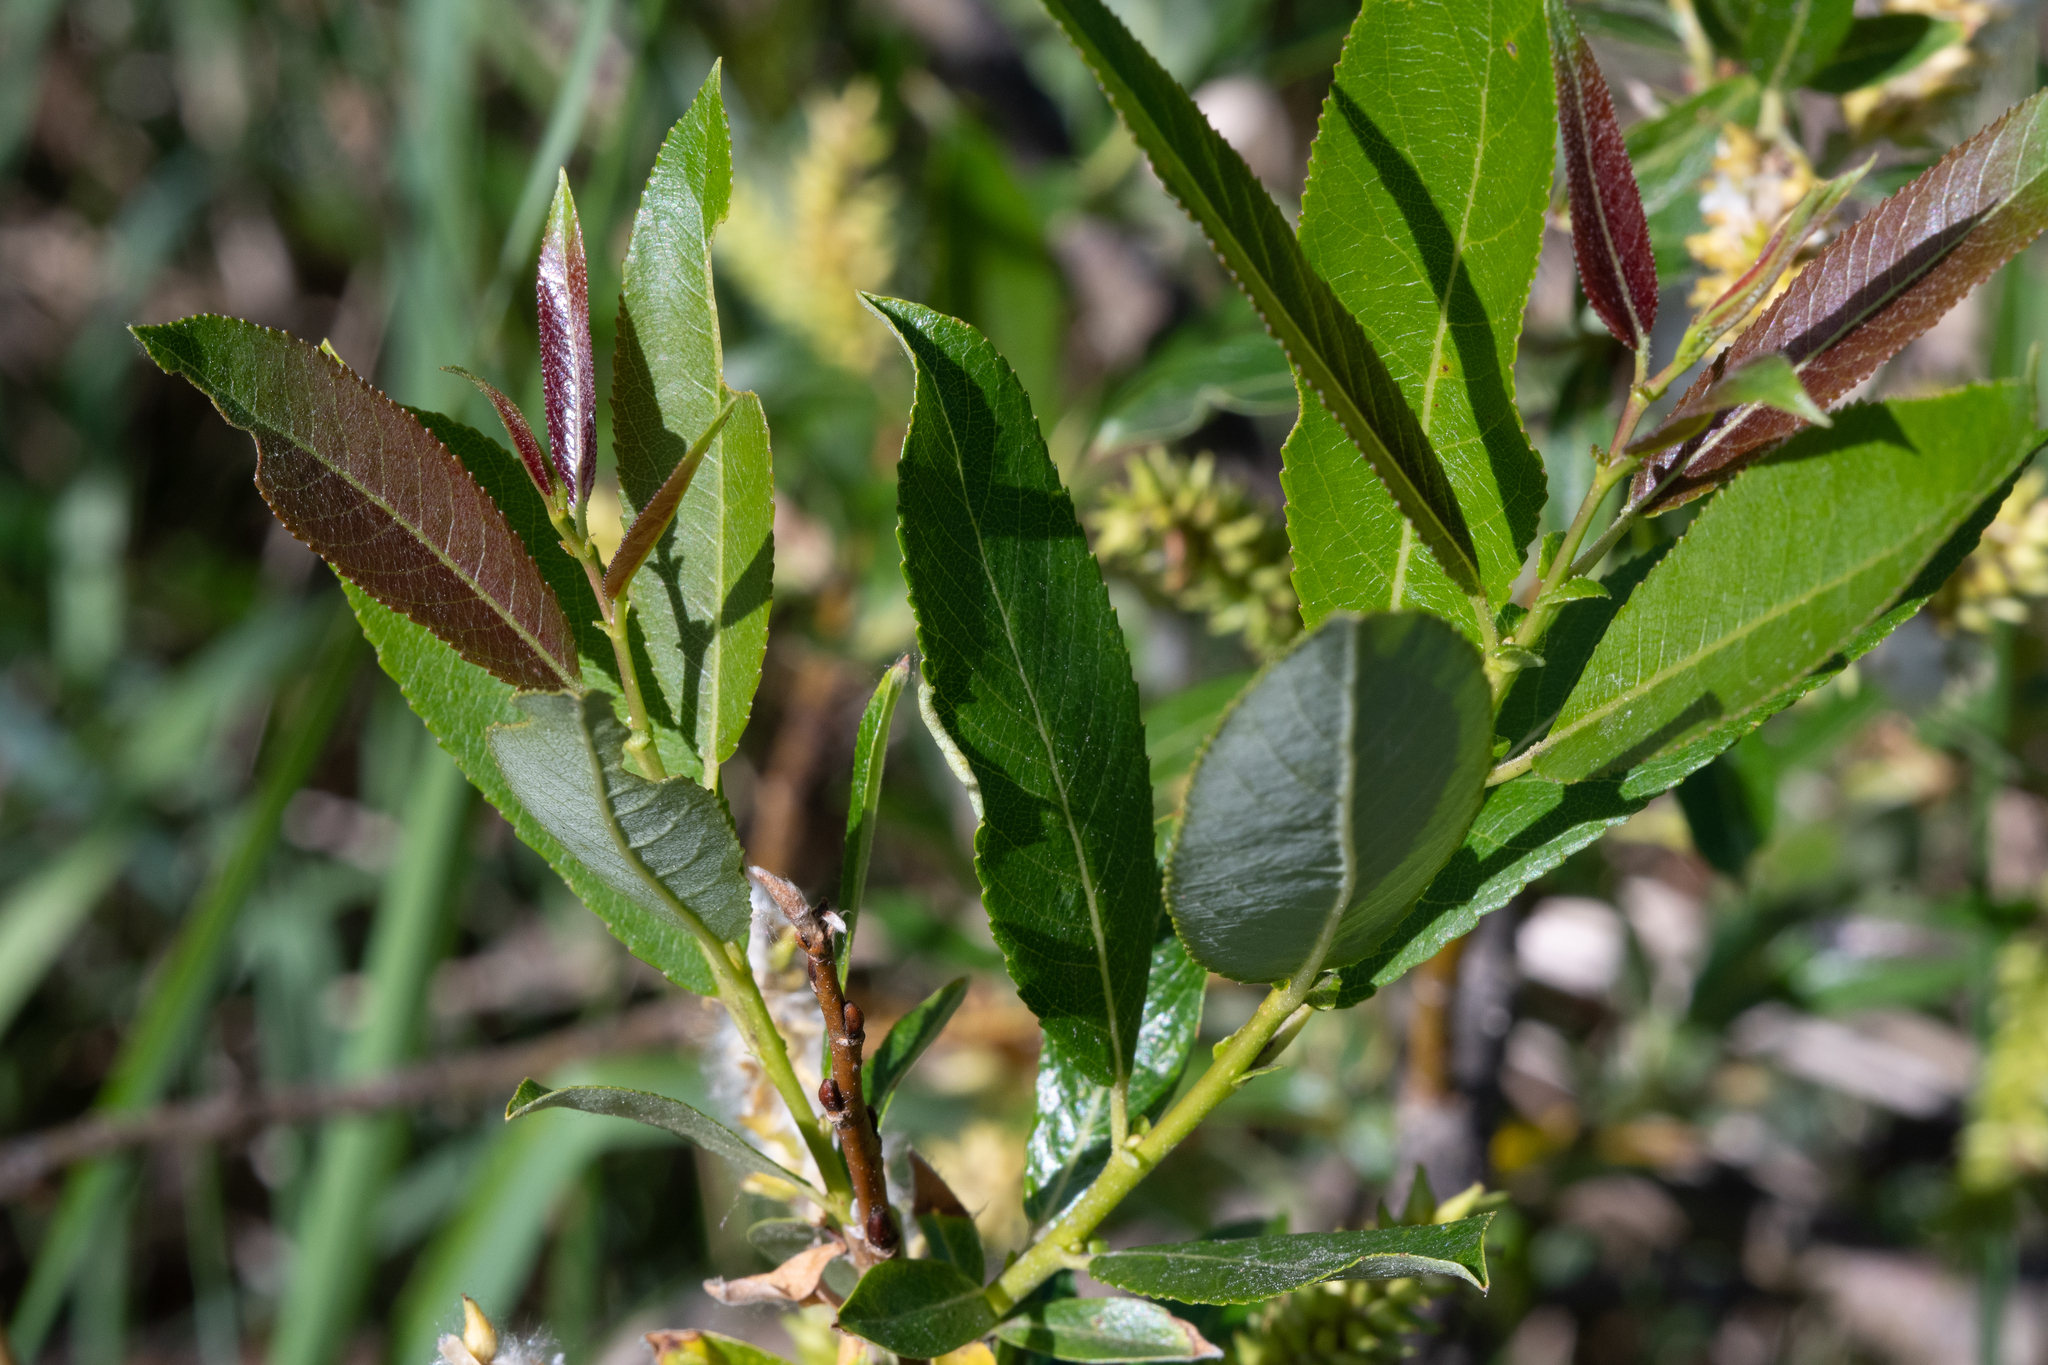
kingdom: Plantae
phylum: Tracheophyta
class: Magnoliopsida
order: Malpighiales
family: Salicaceae
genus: Salix
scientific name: Salix triandra
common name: Almond willow
